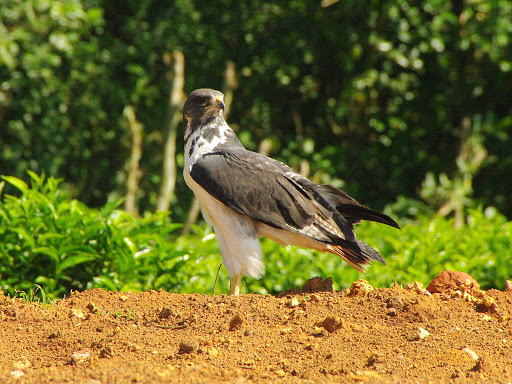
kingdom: Animalia
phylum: Chordata
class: Aves
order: Accipitriformes
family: Accipitridae
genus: Buteo
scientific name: Buteo augur
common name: Augur buzzard
